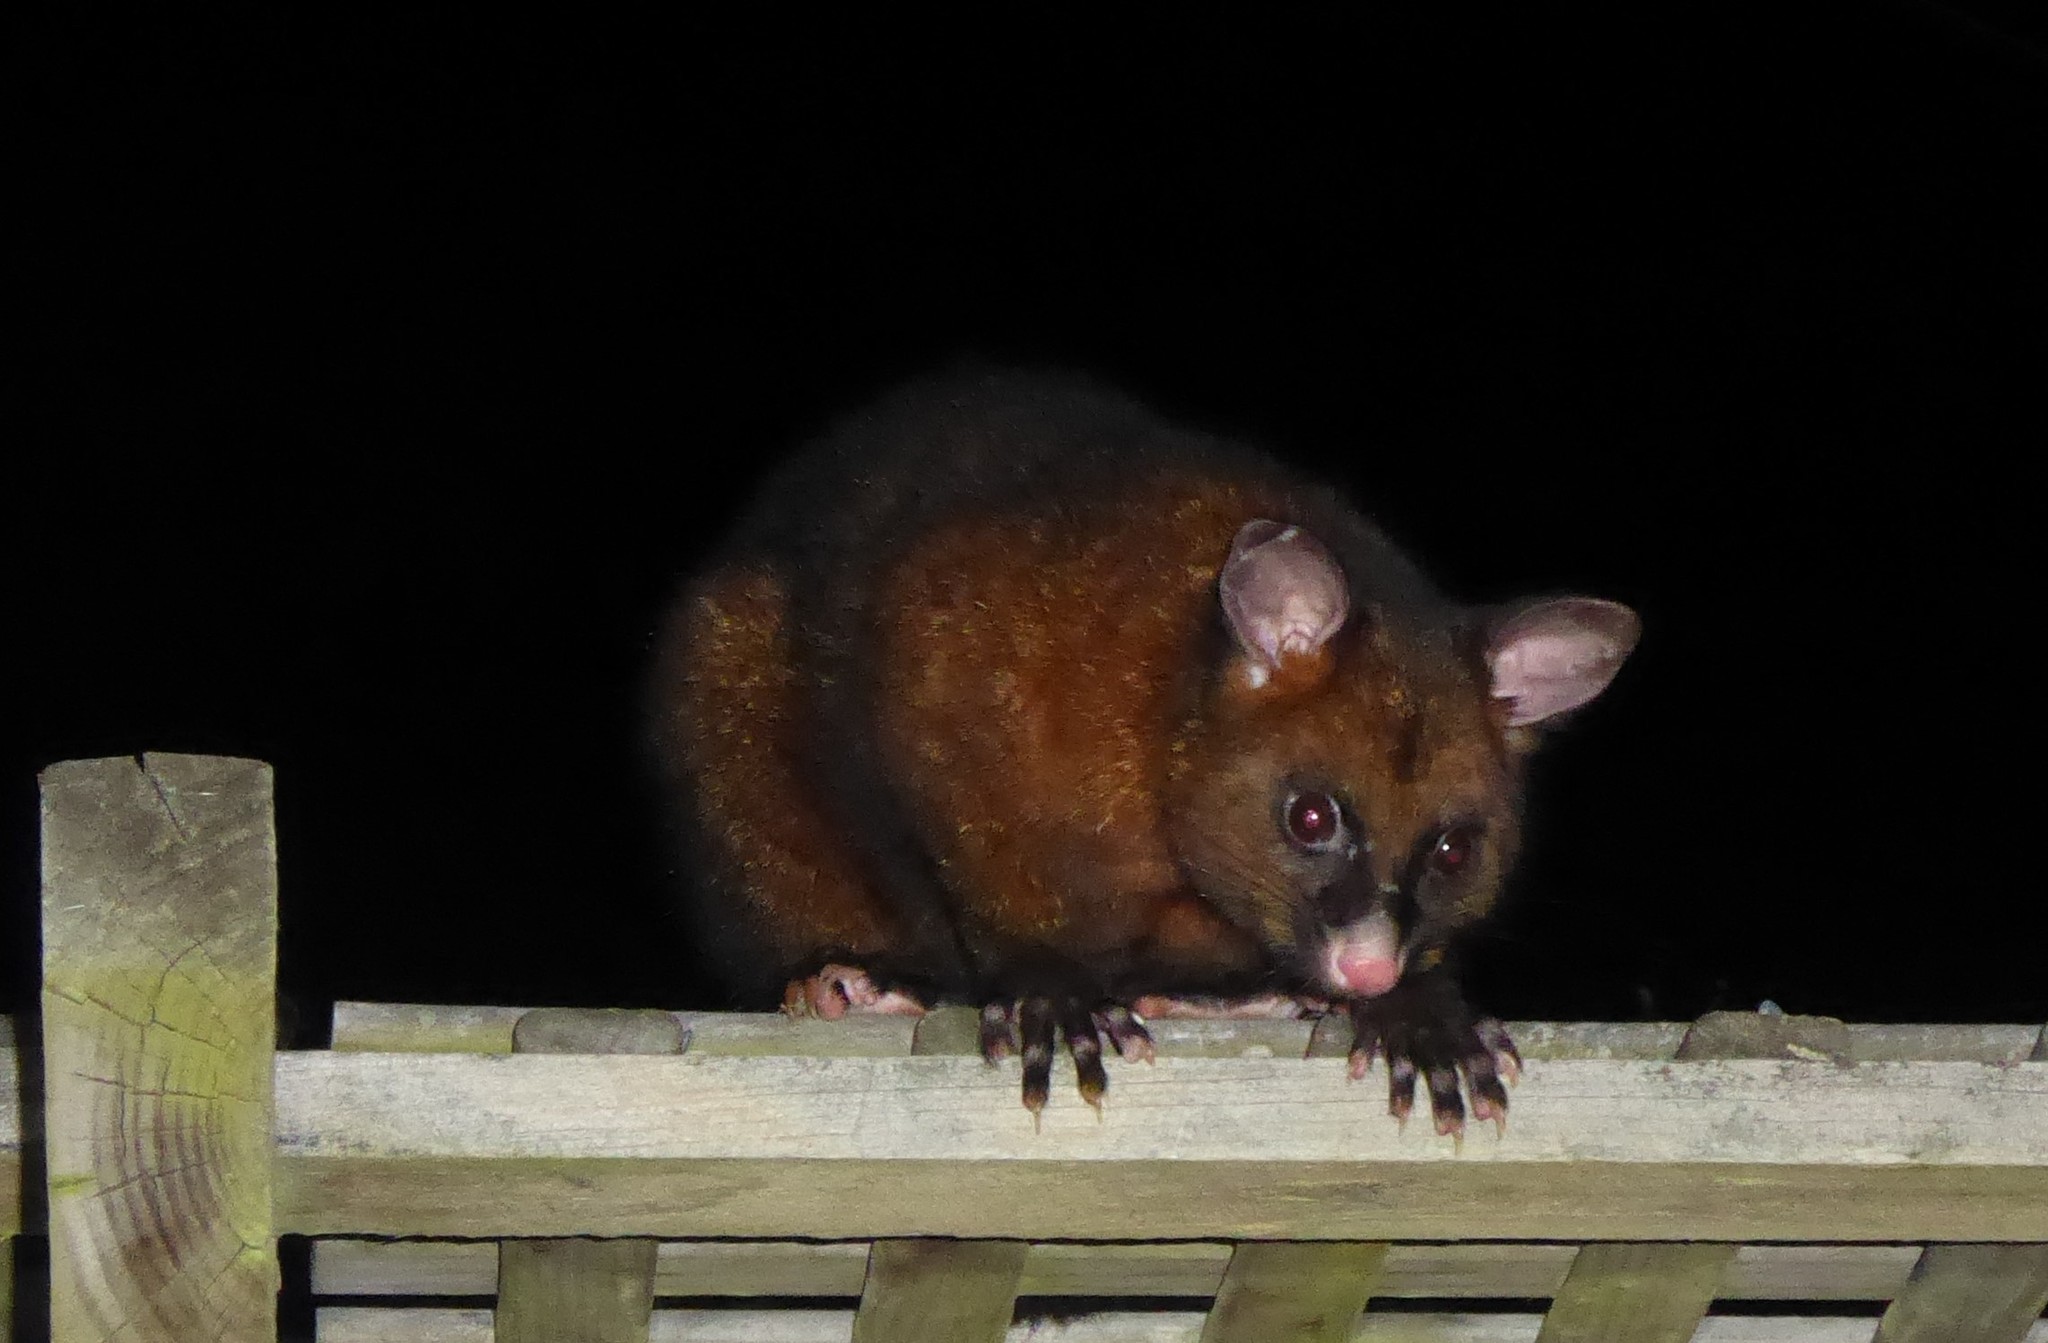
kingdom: Animalia
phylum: Chordata
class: Mammalia
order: Diprotodontia
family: Phalangeridae
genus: Trichosurus
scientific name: Trichosurus vulpecula
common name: Common brushtail
